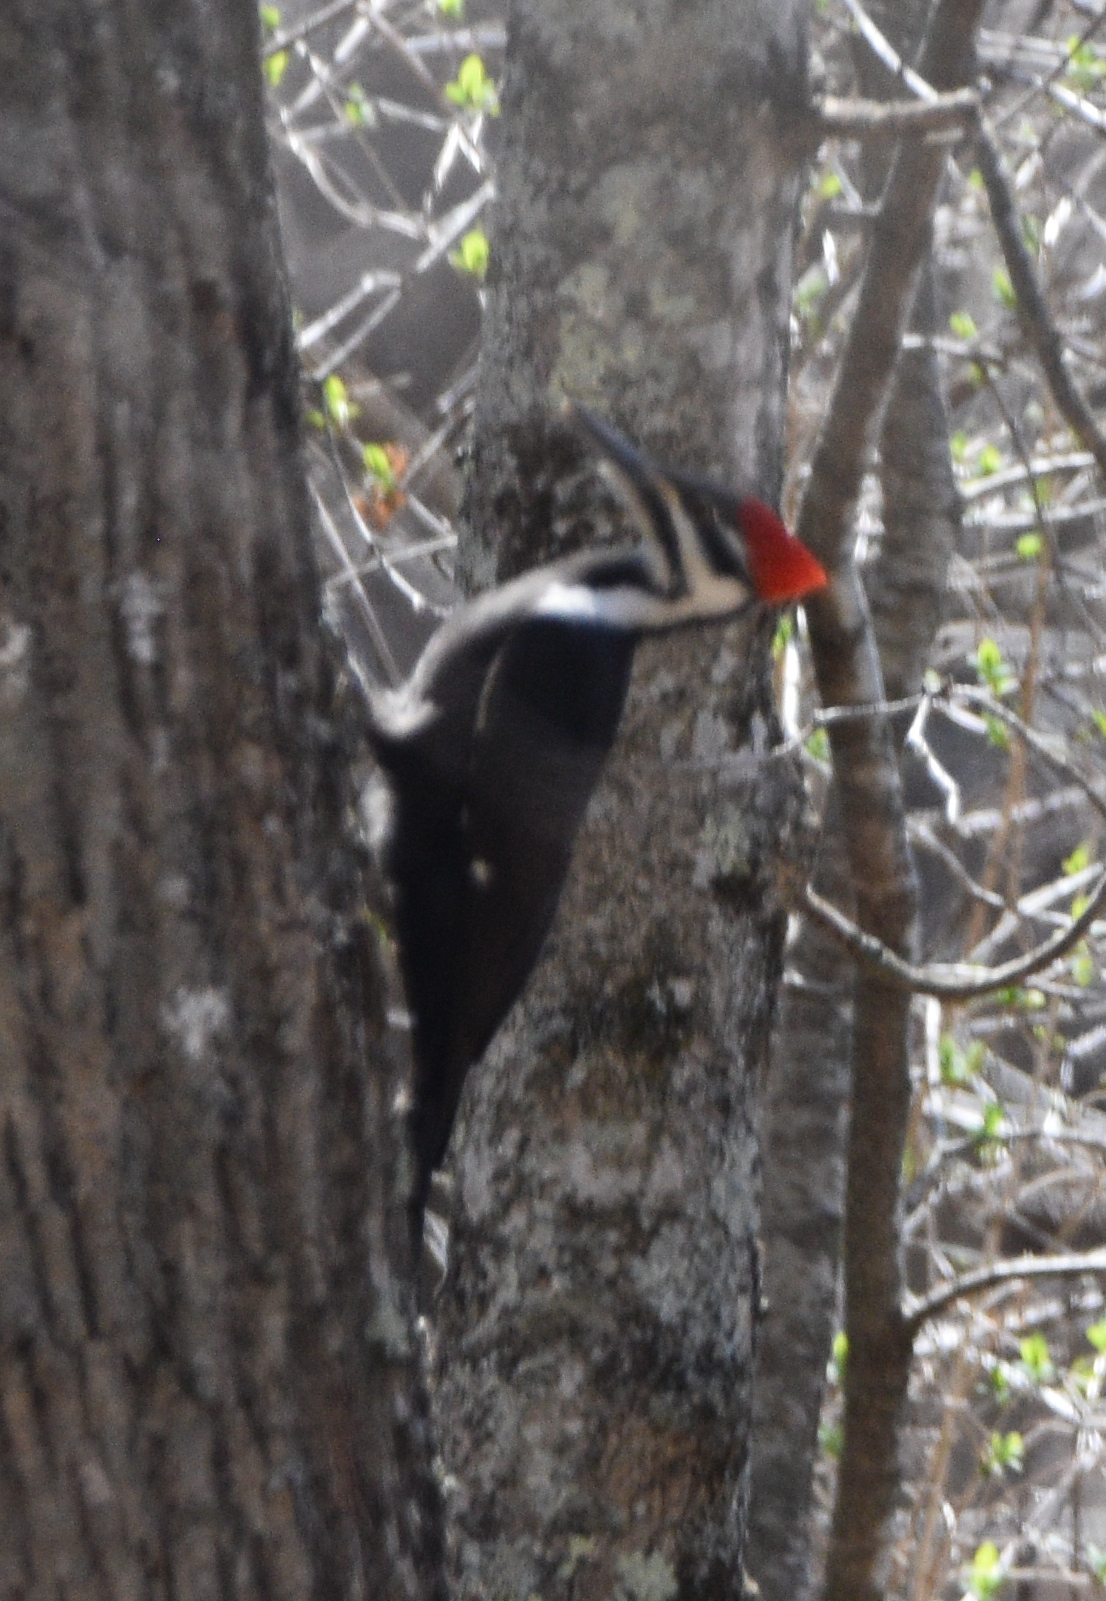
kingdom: Animalia
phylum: Chordata
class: Aves
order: Piciformes
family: Picidae
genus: Dryocopus
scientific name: Dryocopus pileatus
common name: Pileated woodpecker
